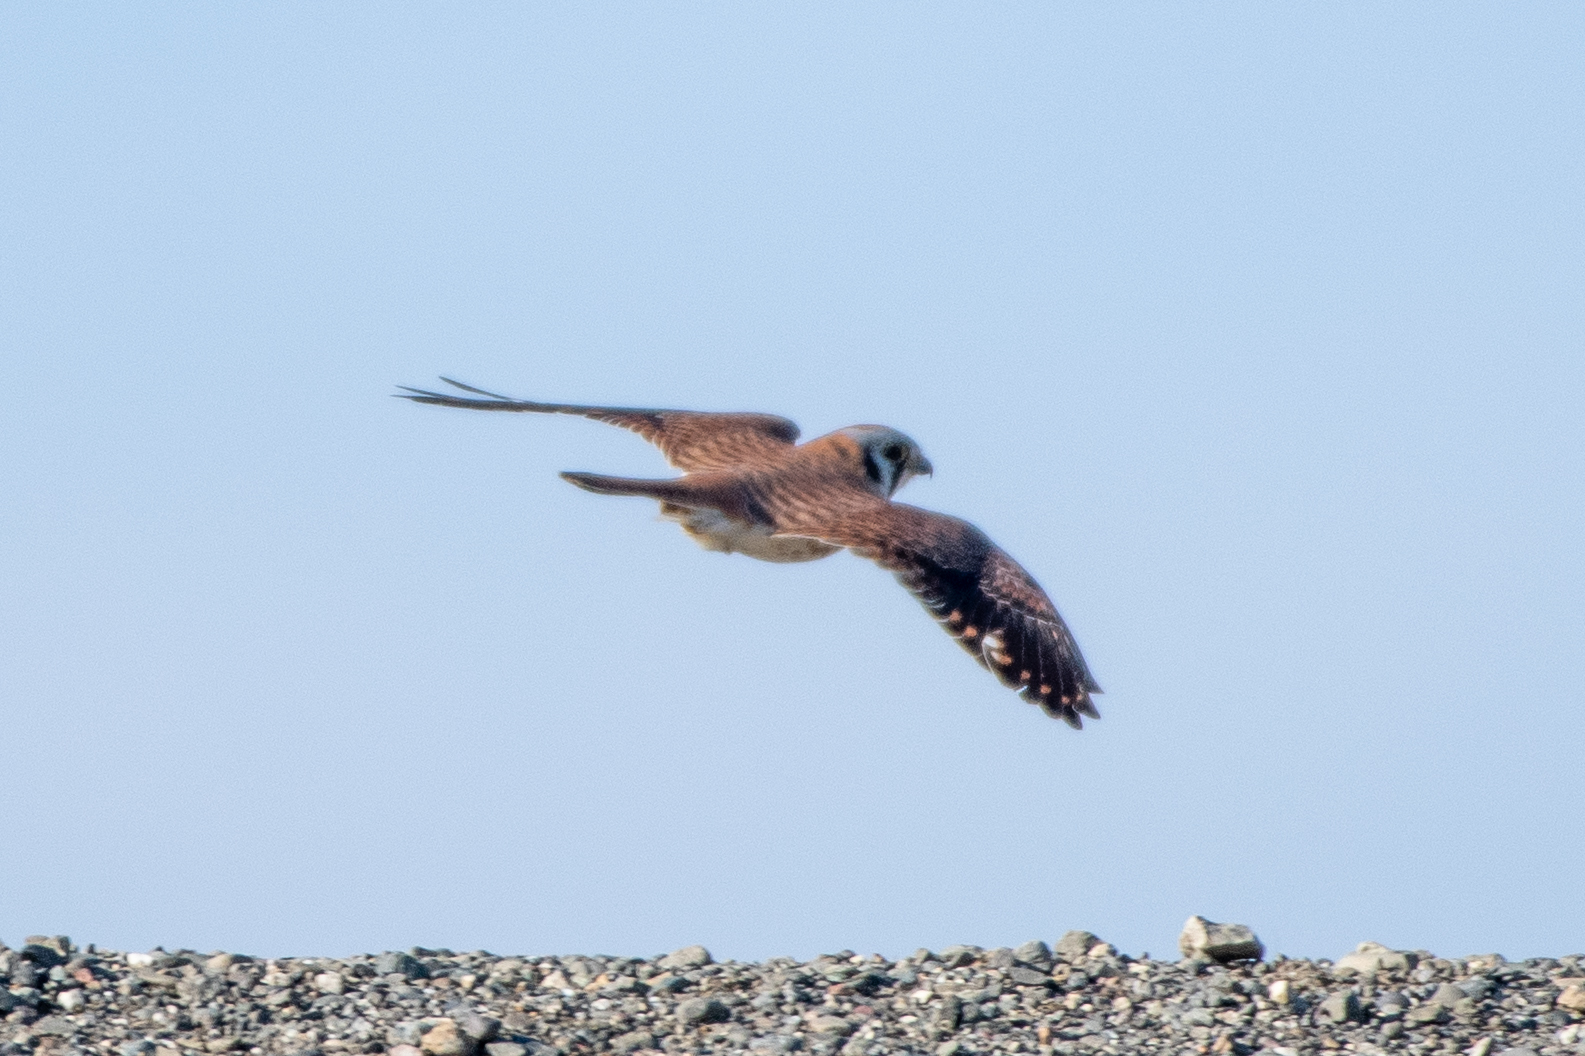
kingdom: Animalia
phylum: Chordata
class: Aves
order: Falconiformes
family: Falconidae
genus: Falco
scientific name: Falco sparverius
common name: American kestrel
